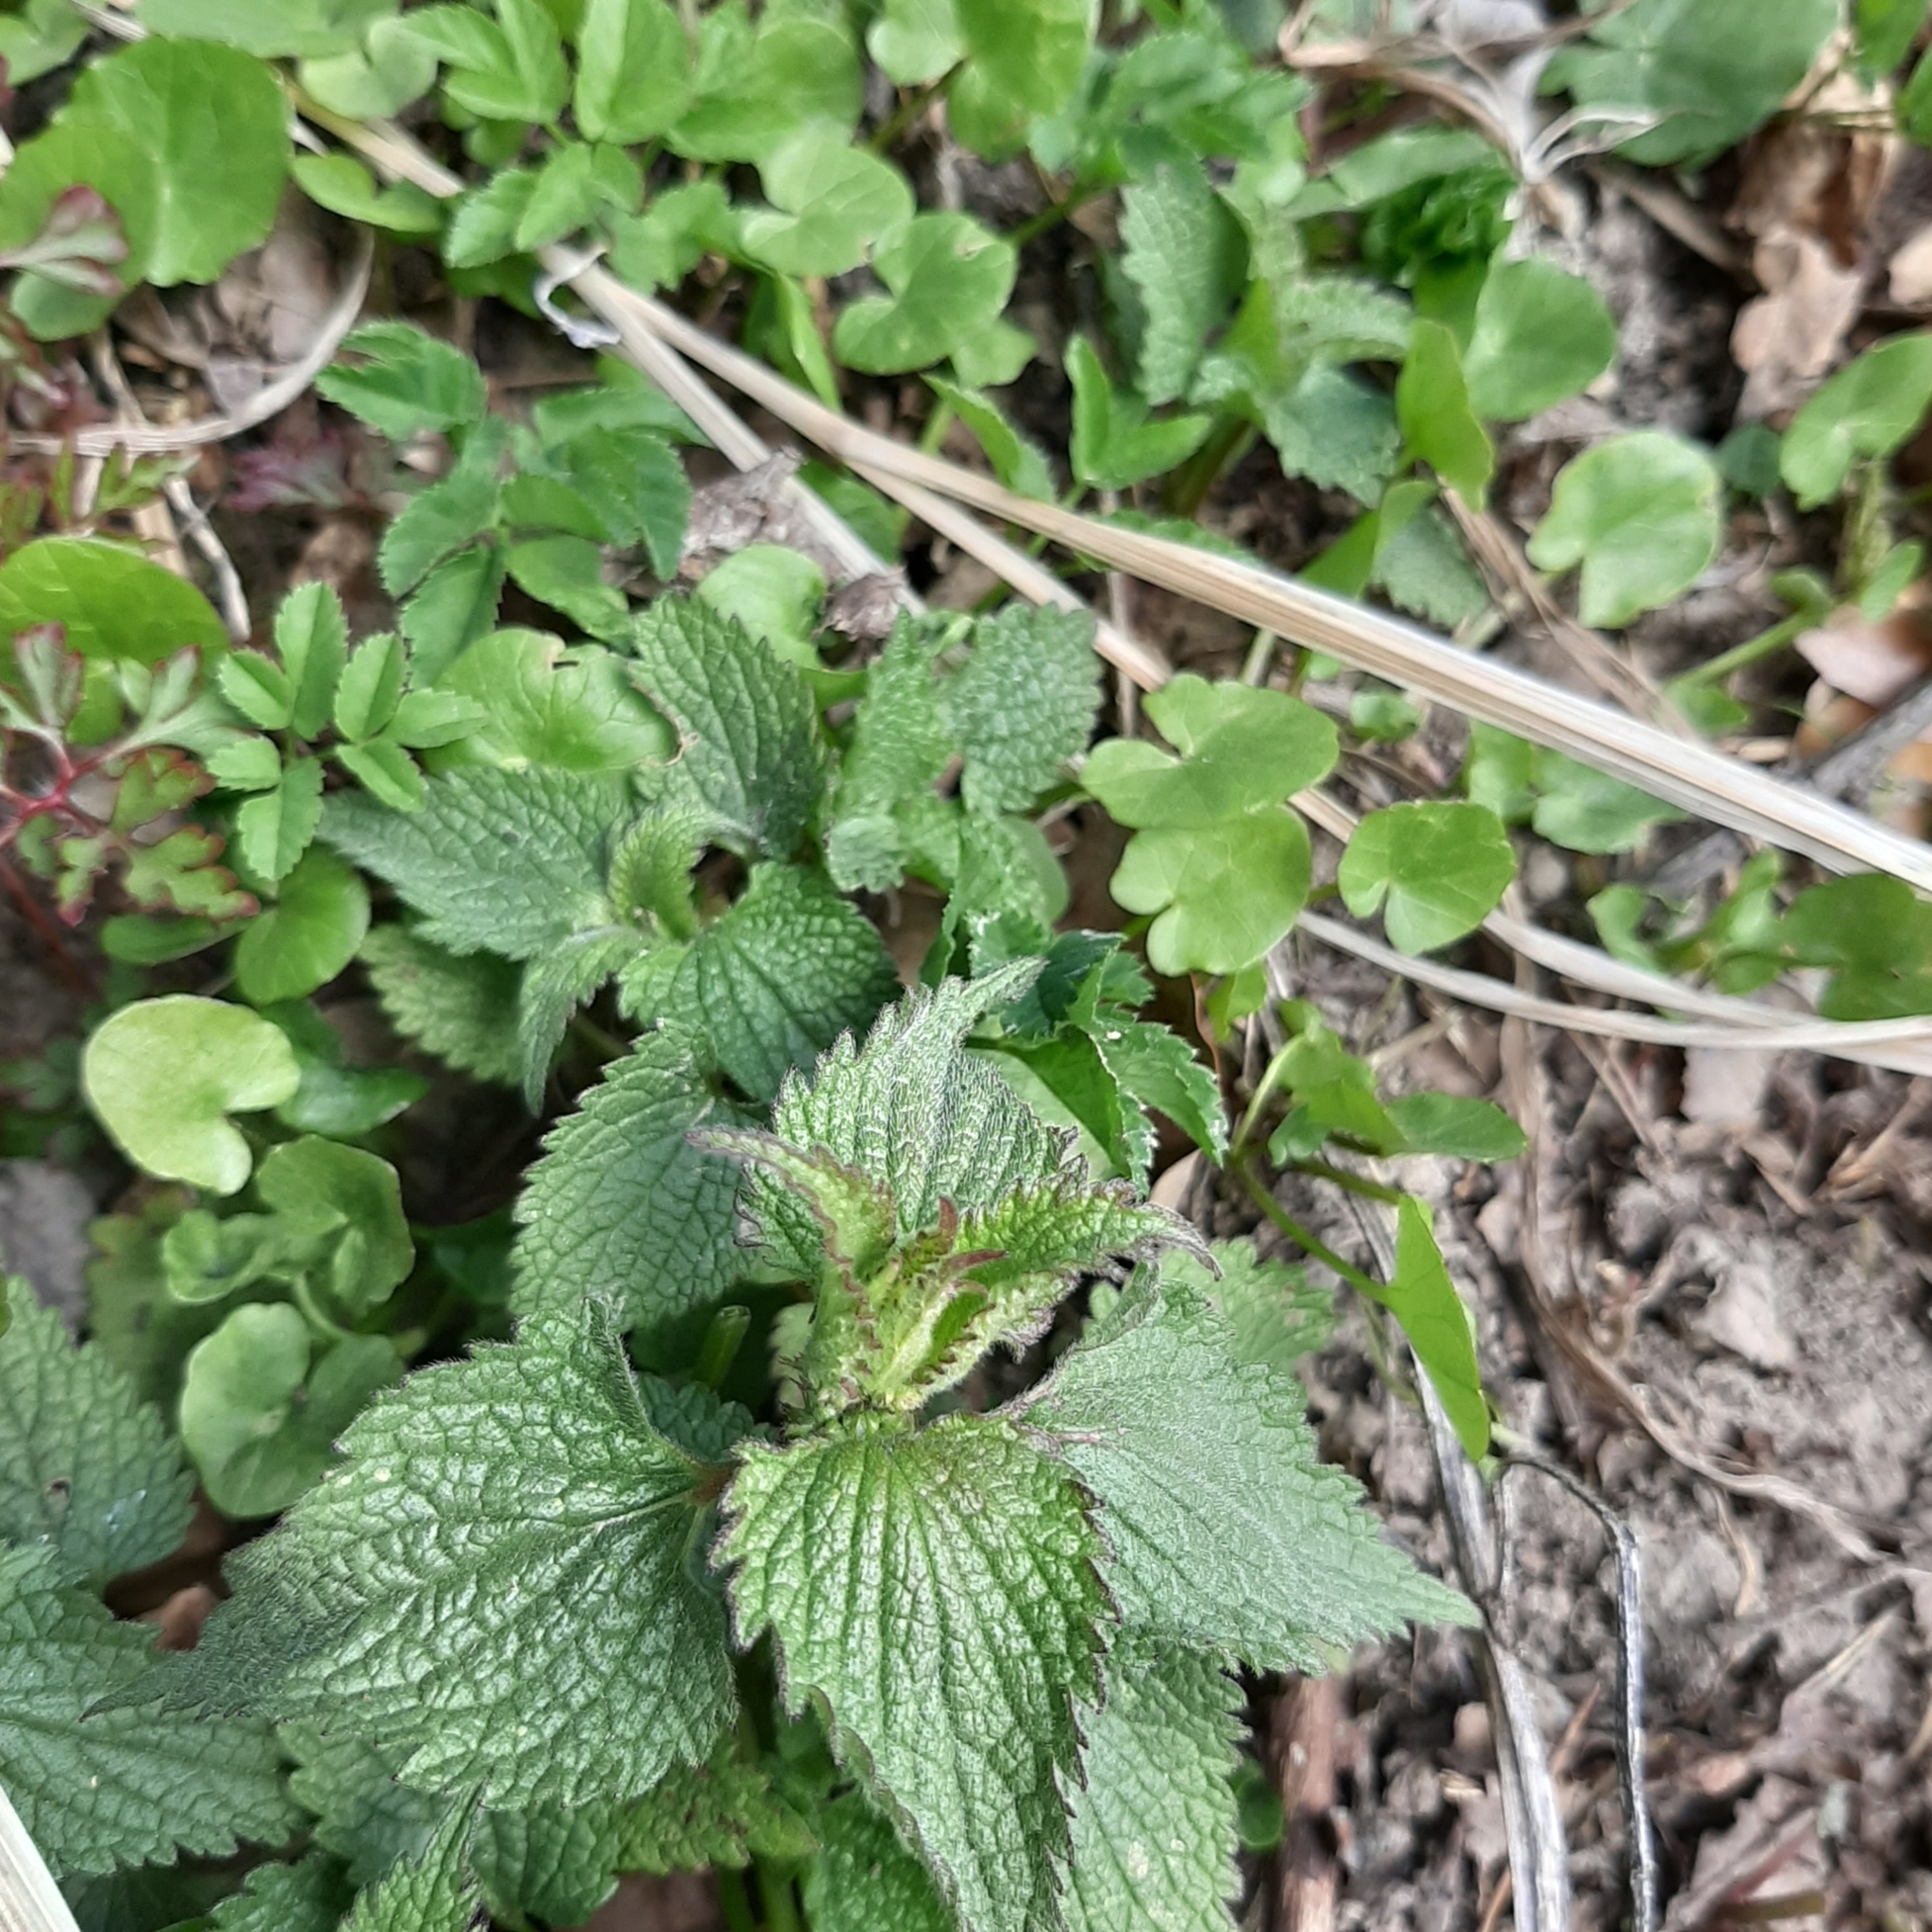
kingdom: Plantae
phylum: Tracheophyta
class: Magnoliopsida
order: Lamiales
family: Lamiaceae
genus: Lamium
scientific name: Lamium album
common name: White dead-nettle
